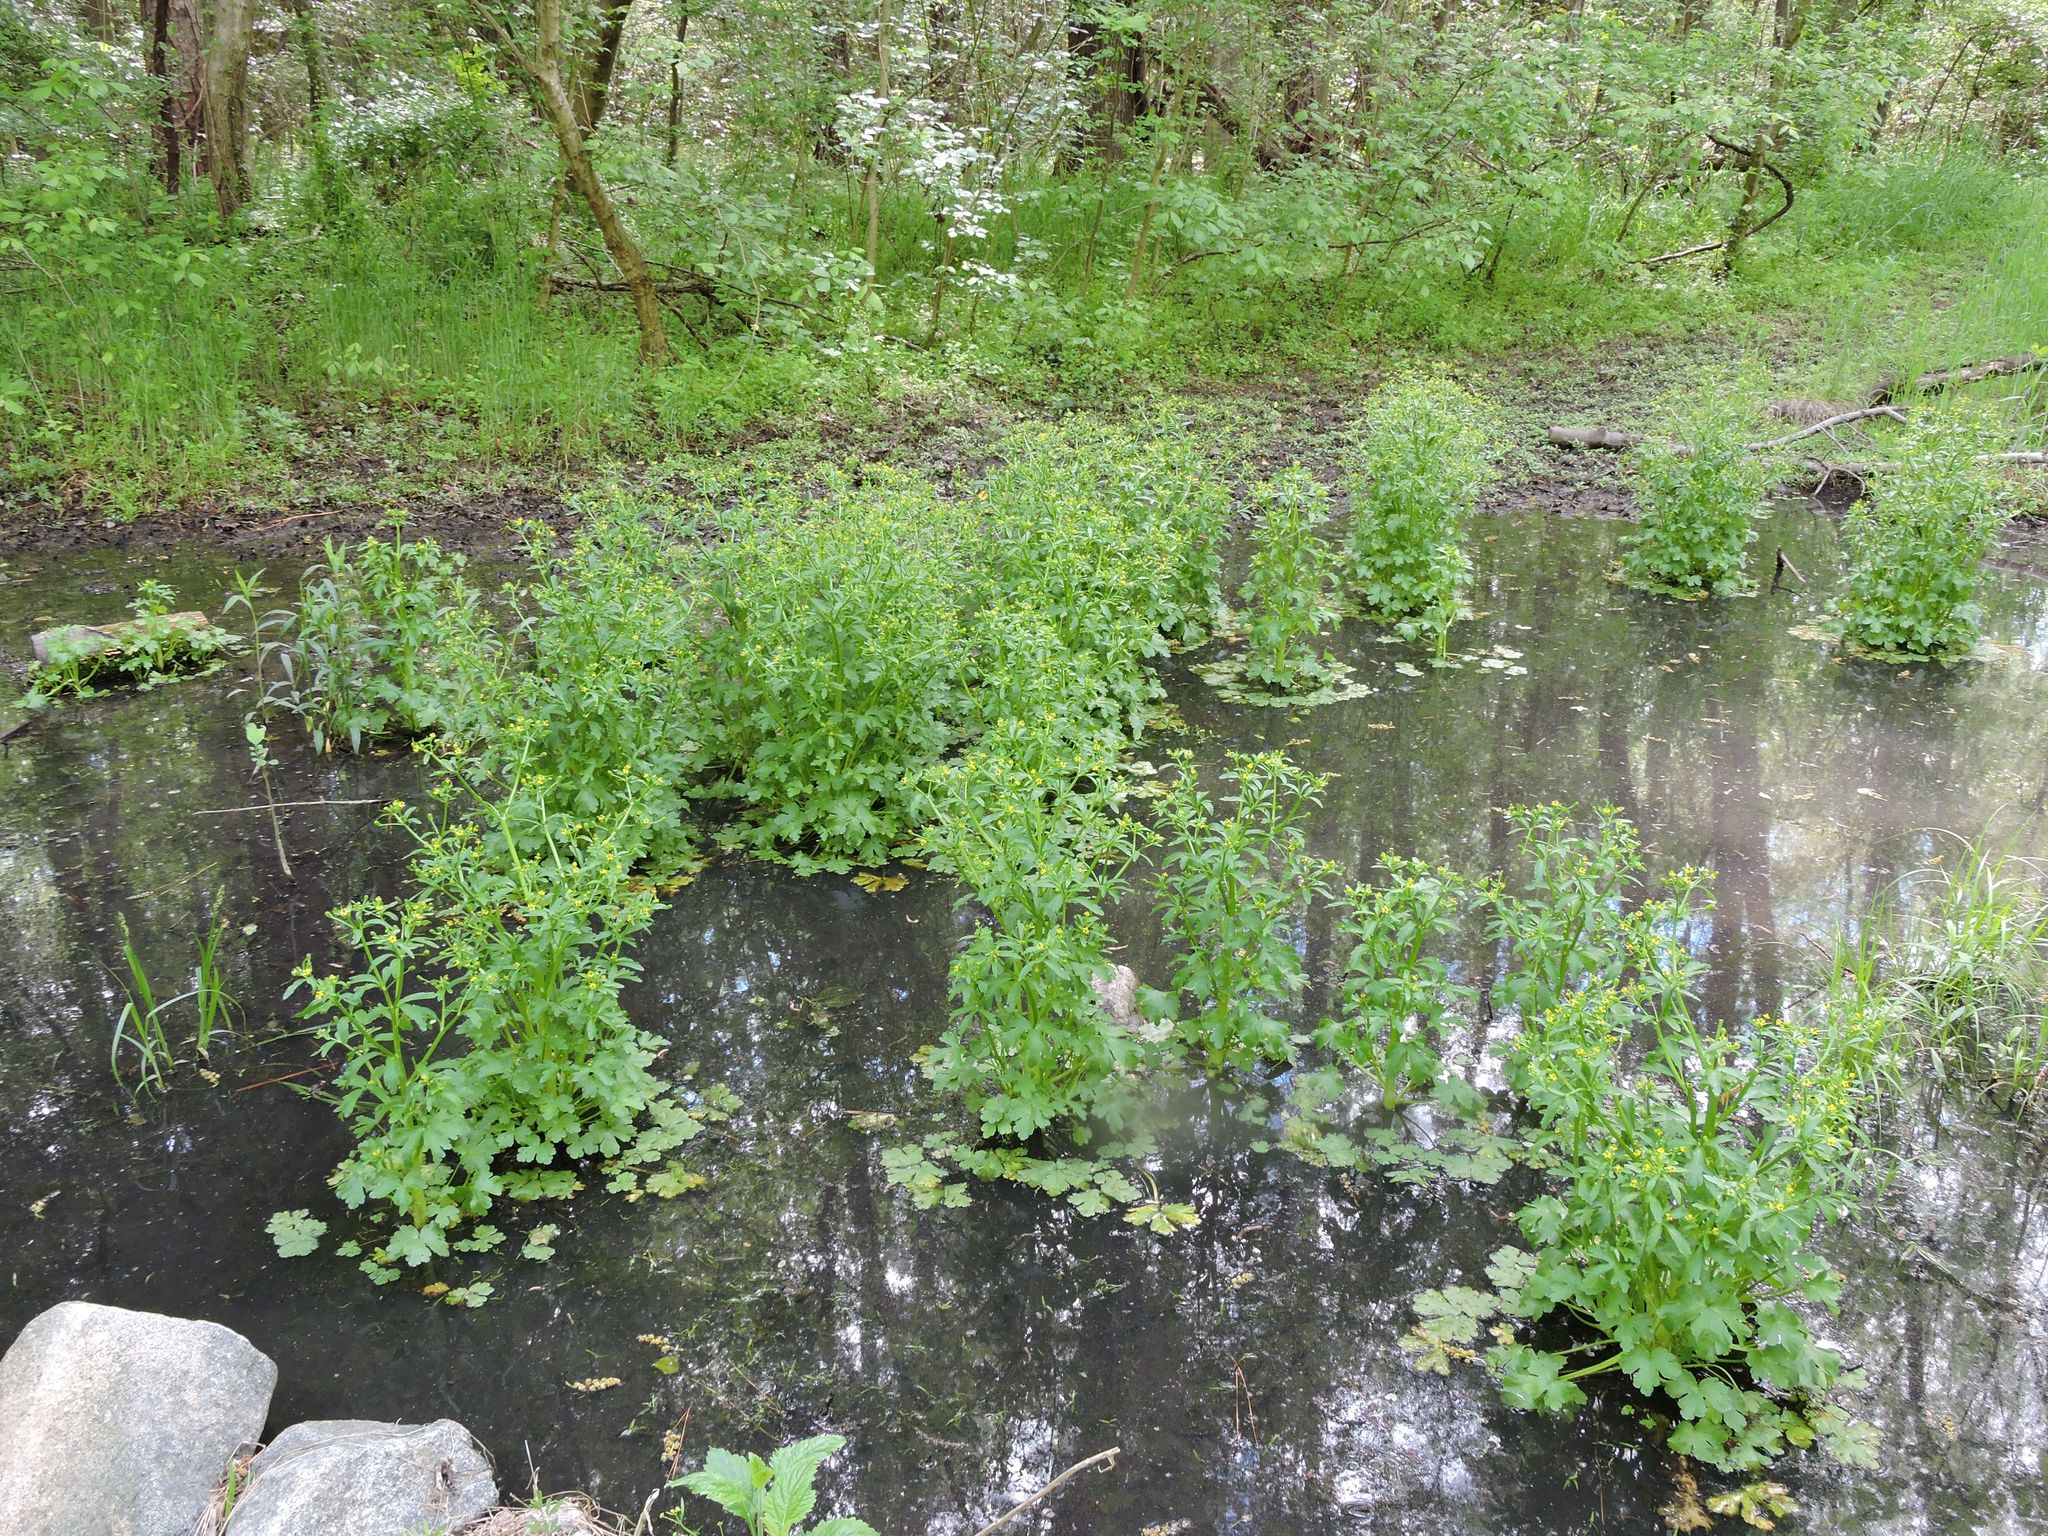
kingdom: Plantae
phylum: Tracheophyta
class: Magnoliopsida
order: Ranunculales
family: Ranunculaceae
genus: Ranunculus
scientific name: Ranunculus sceleratus
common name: Celery-leaved buttercup
